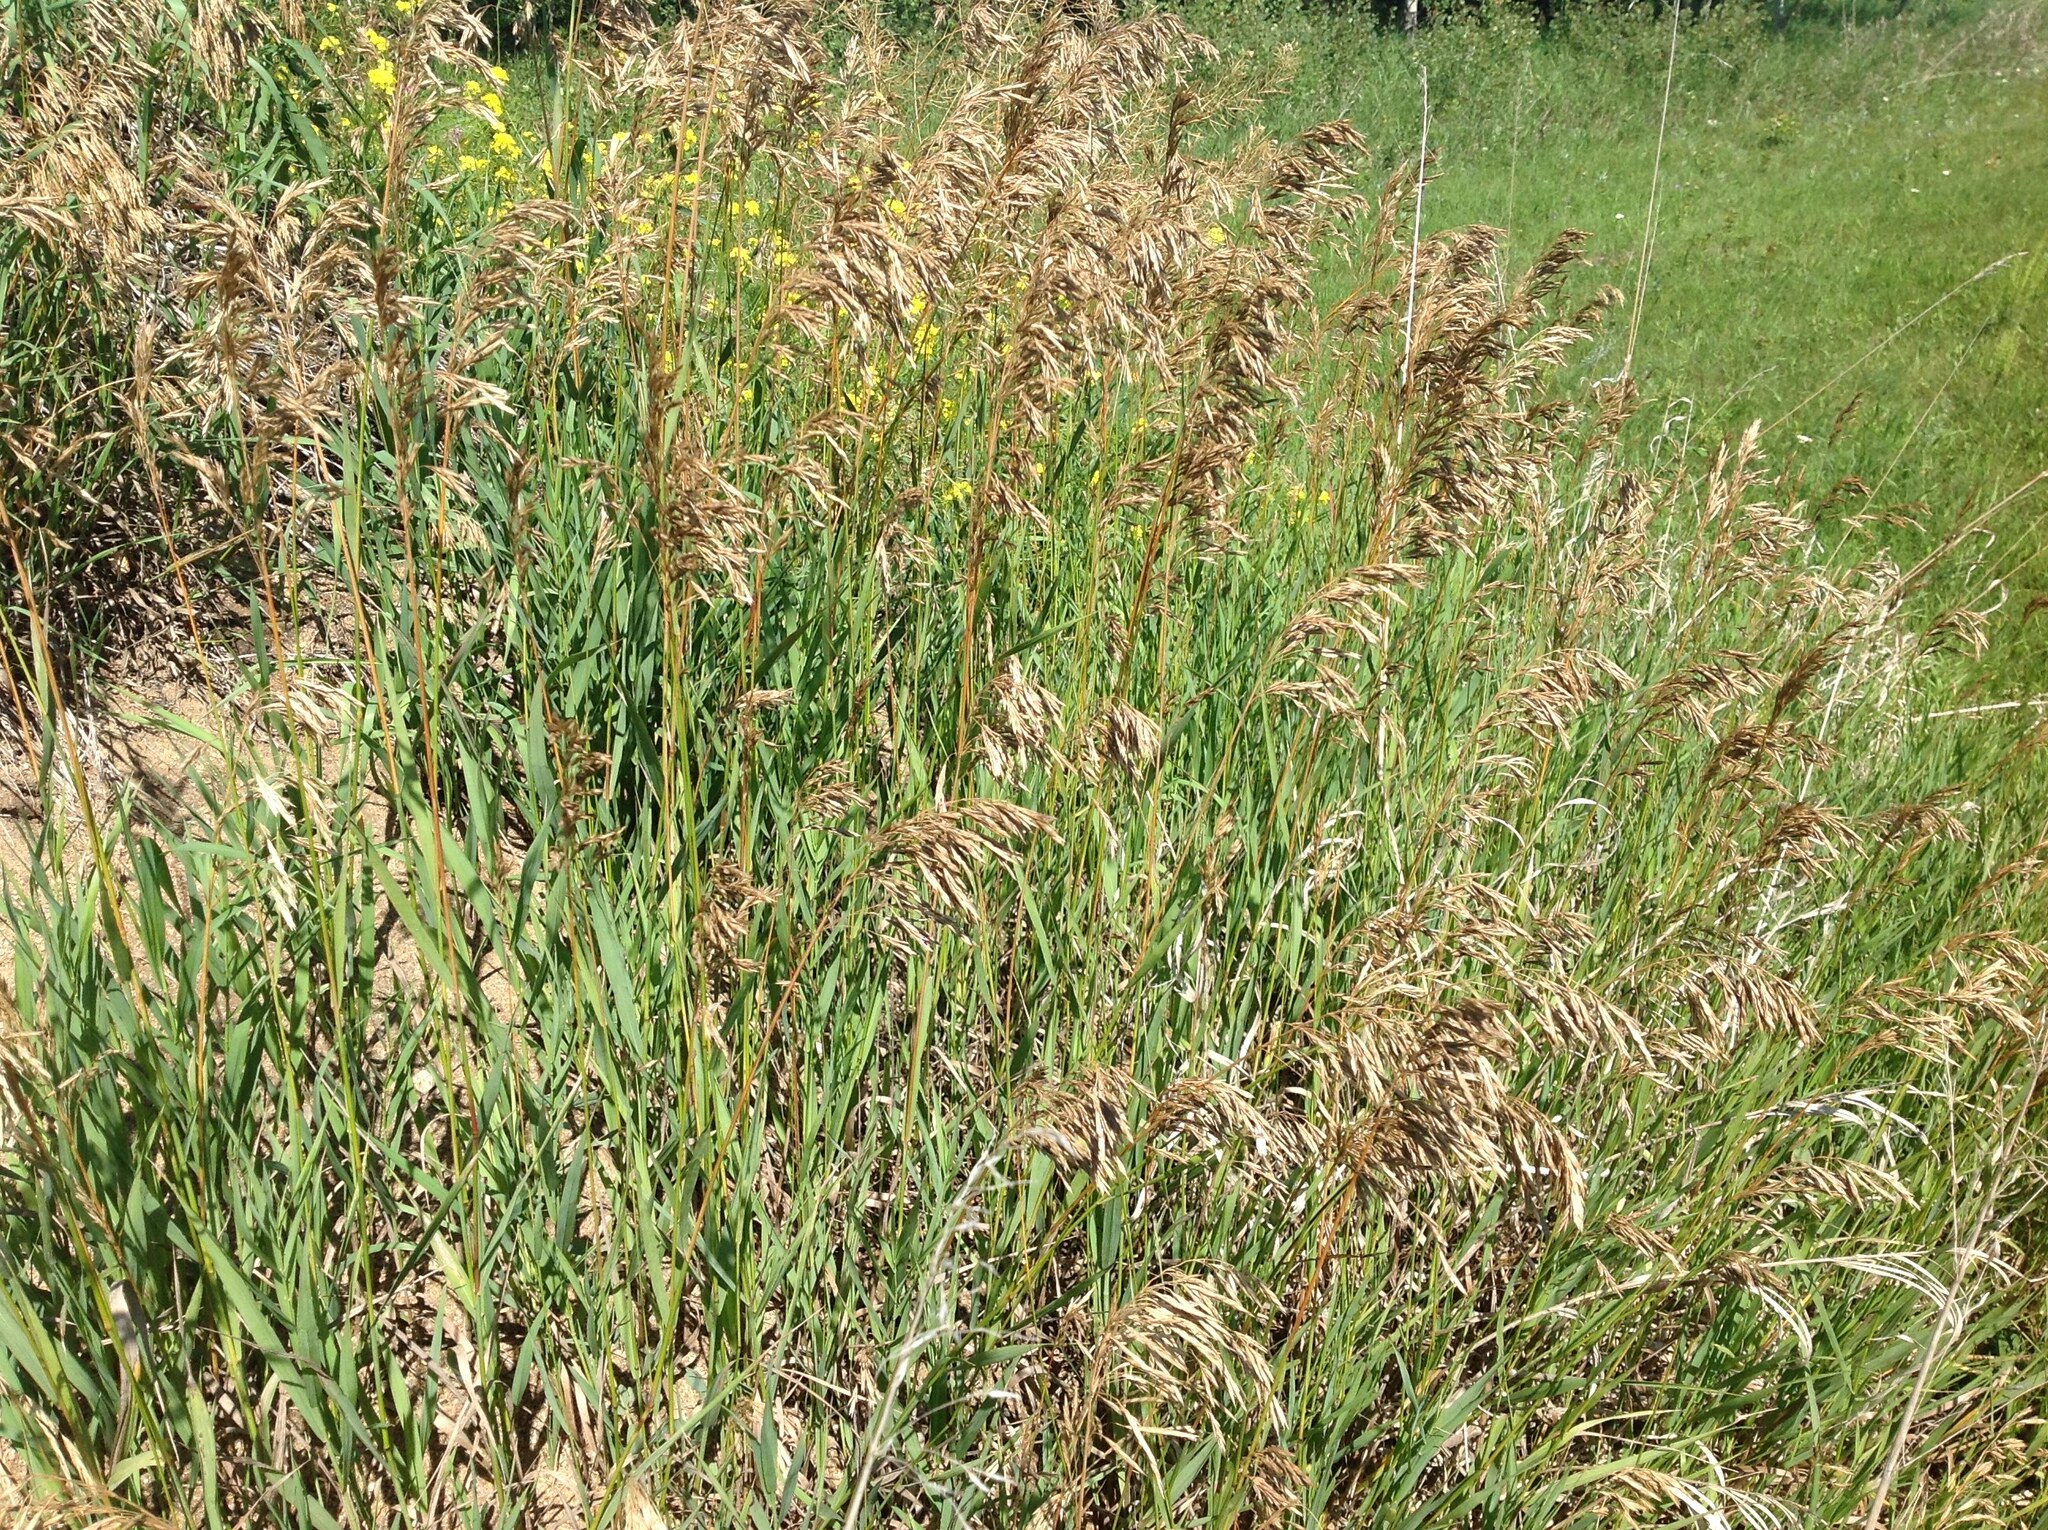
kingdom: Plantae
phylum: Tracheophyta
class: Liliopsida
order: Poales
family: Poaceae
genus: Bromus
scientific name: Bromus inermis
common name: Smooth brome
